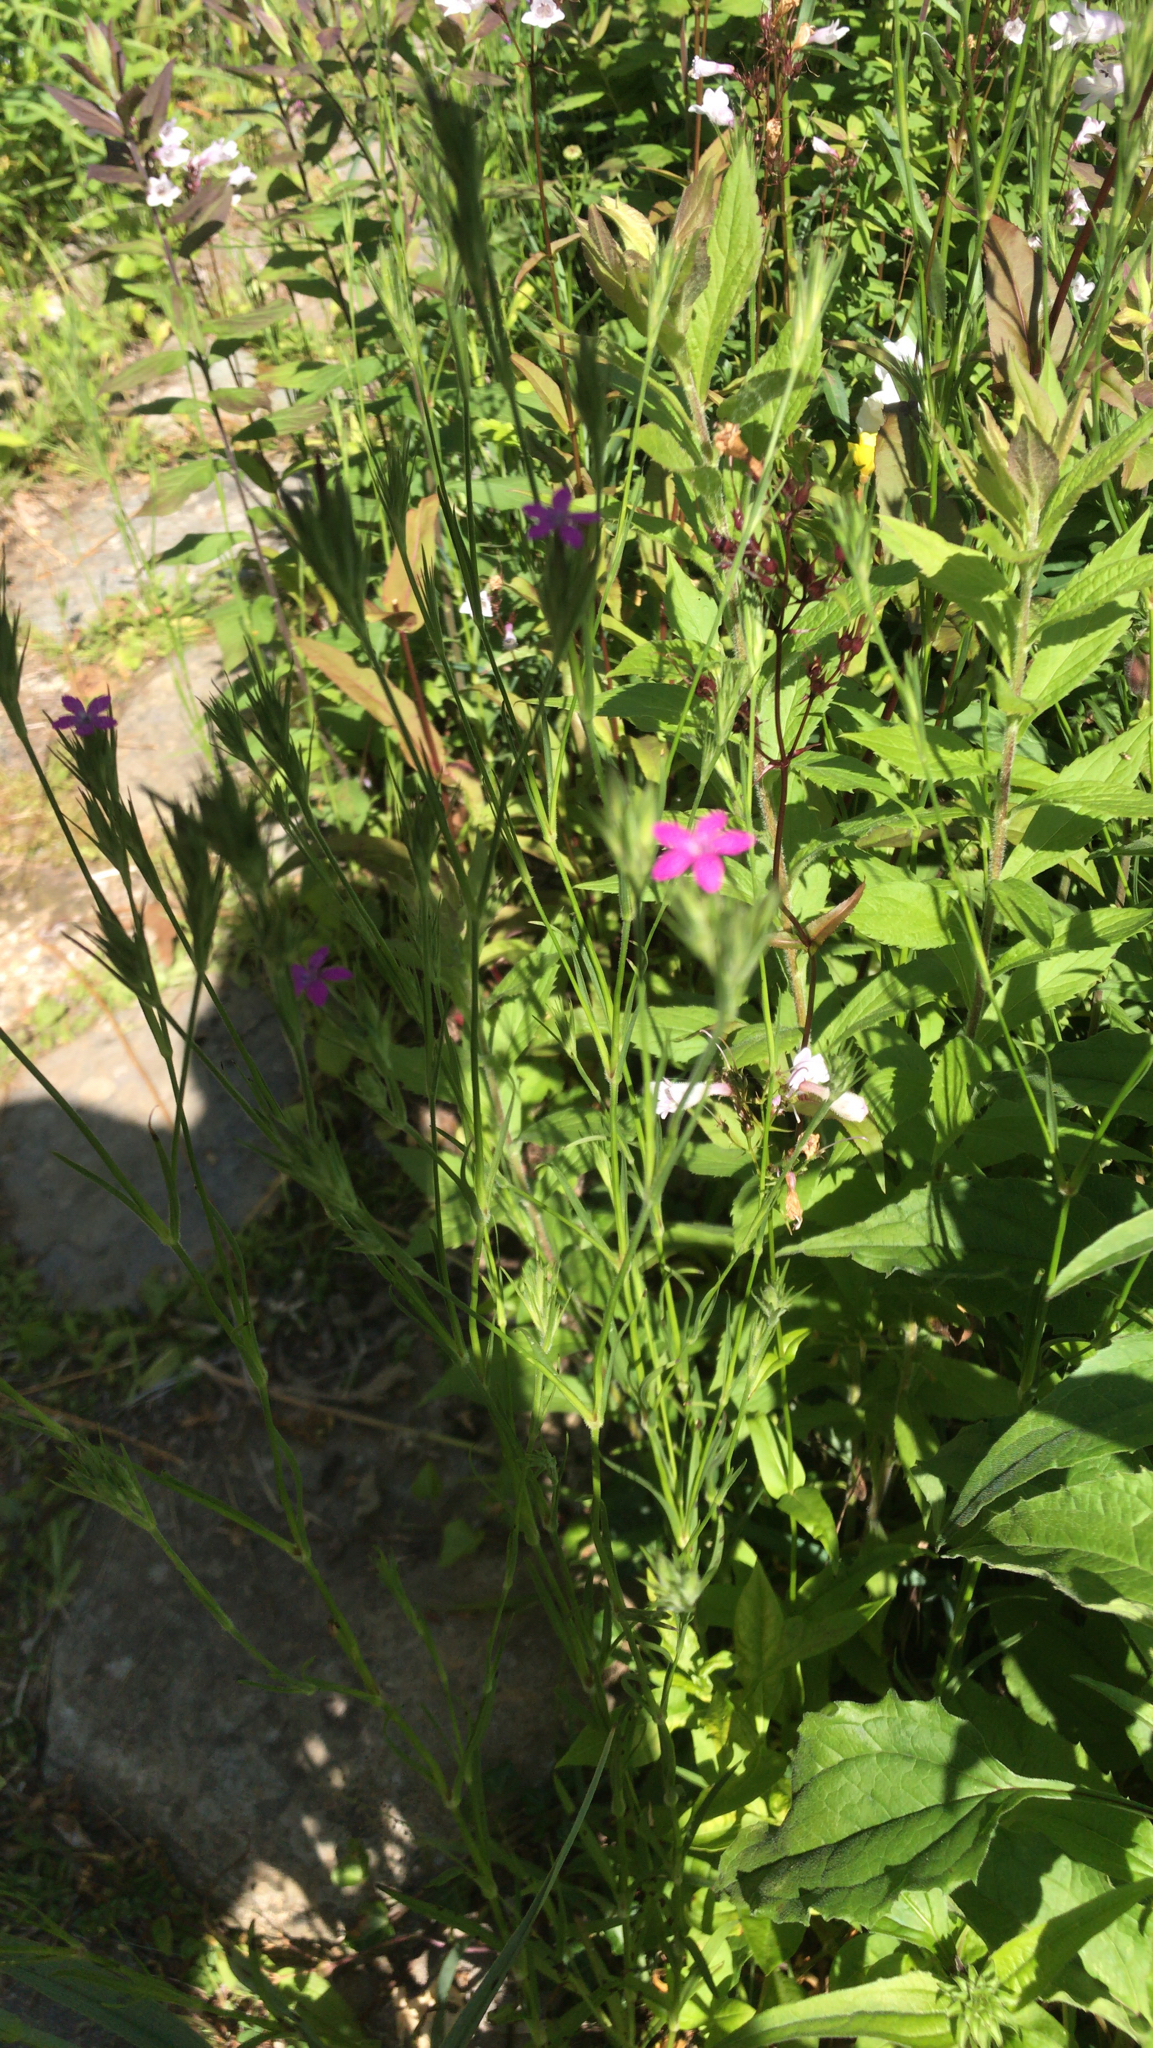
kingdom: Plantae
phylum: Tracheophyta
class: Magnoliopsida
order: Caryophyllales
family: Caryophyllaceae
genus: Dianthus
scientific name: Dianthus armeria
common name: Deptford pink
